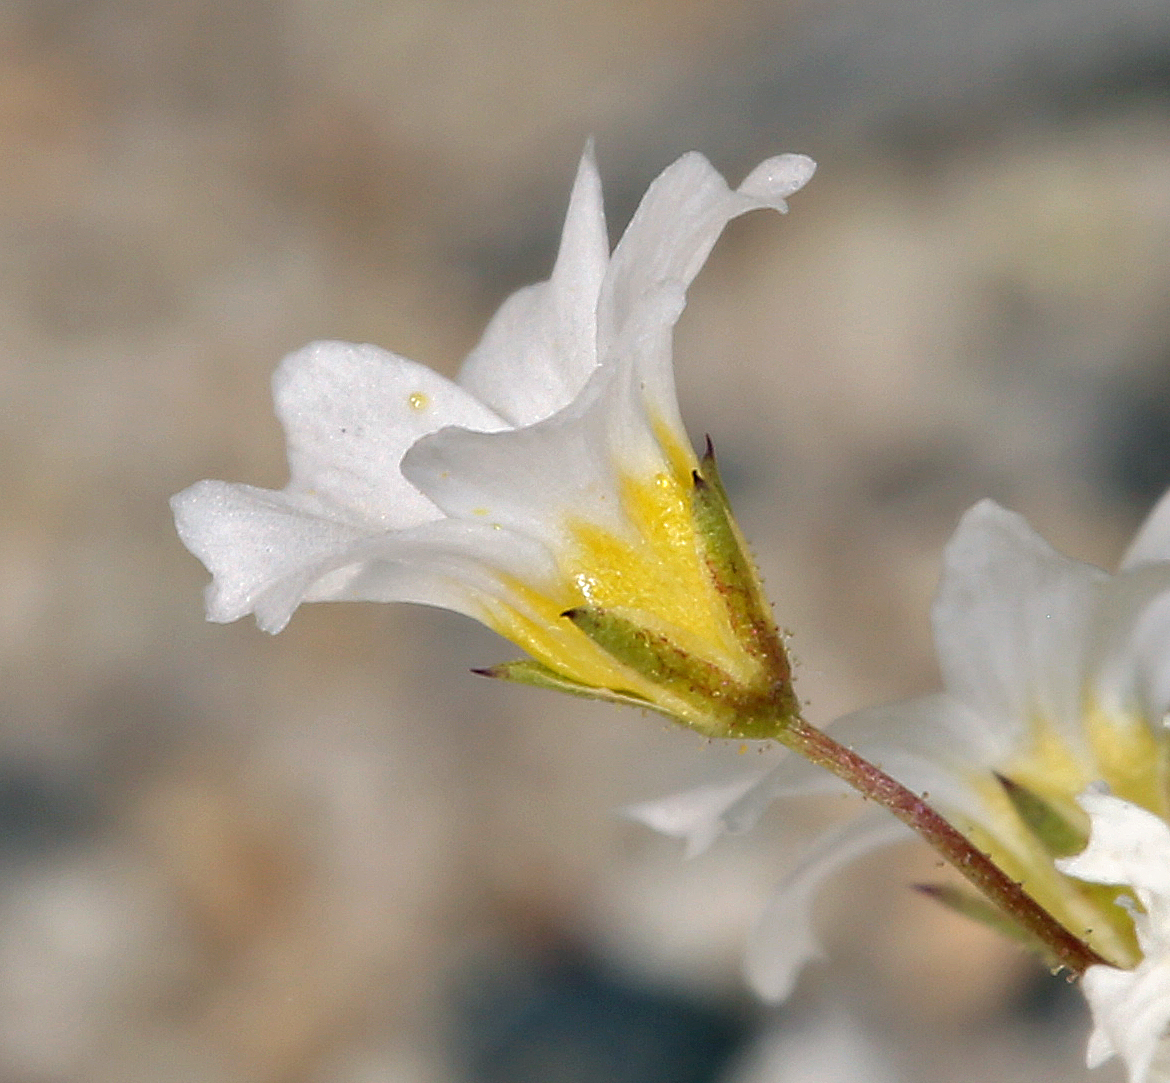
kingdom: Plantae
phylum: Tracheophyta
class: Magnoliopsida
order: Ericales
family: Polemoniaceae
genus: Linanthus
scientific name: Linanthus inyoensis
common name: Inyo gilia
